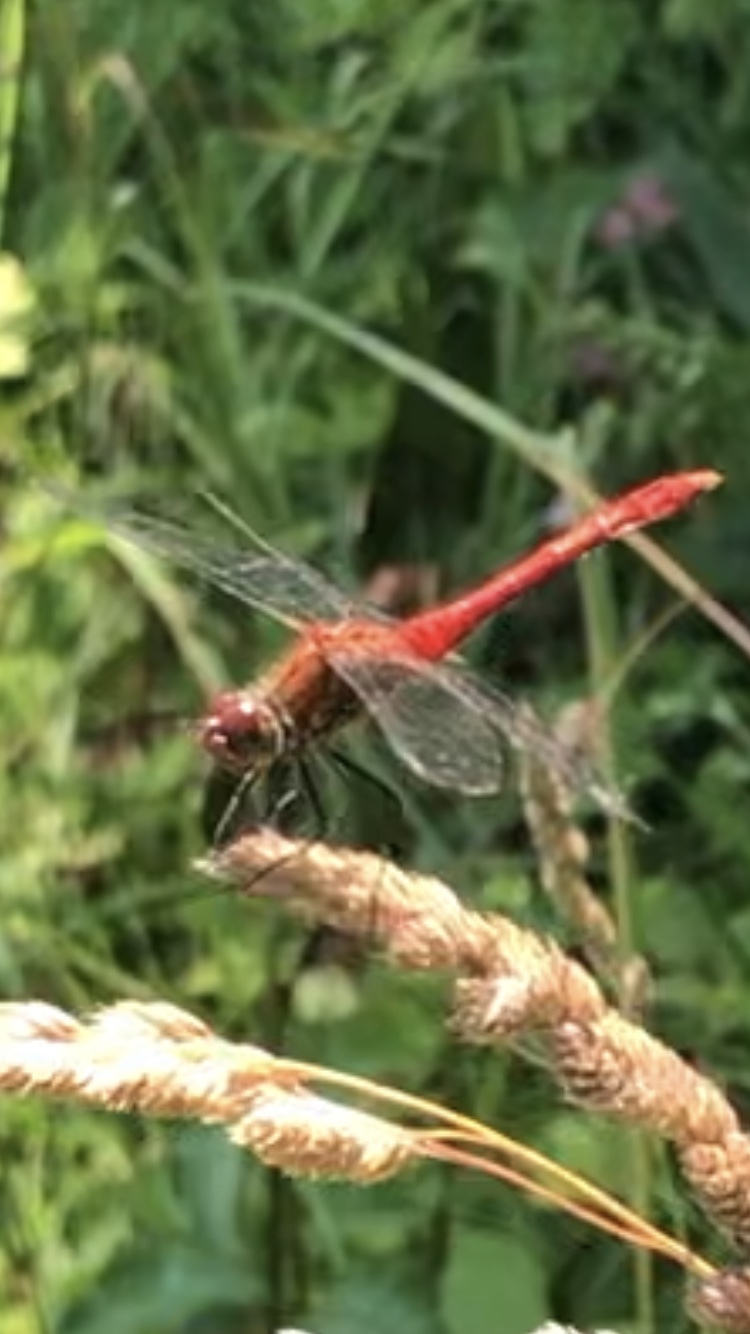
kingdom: Animalia
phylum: Arthropoda
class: Insecta
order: Odonata
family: Libellulidae
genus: Sympetrum
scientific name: Sympetrum sanguineum
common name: Ruddy darter
